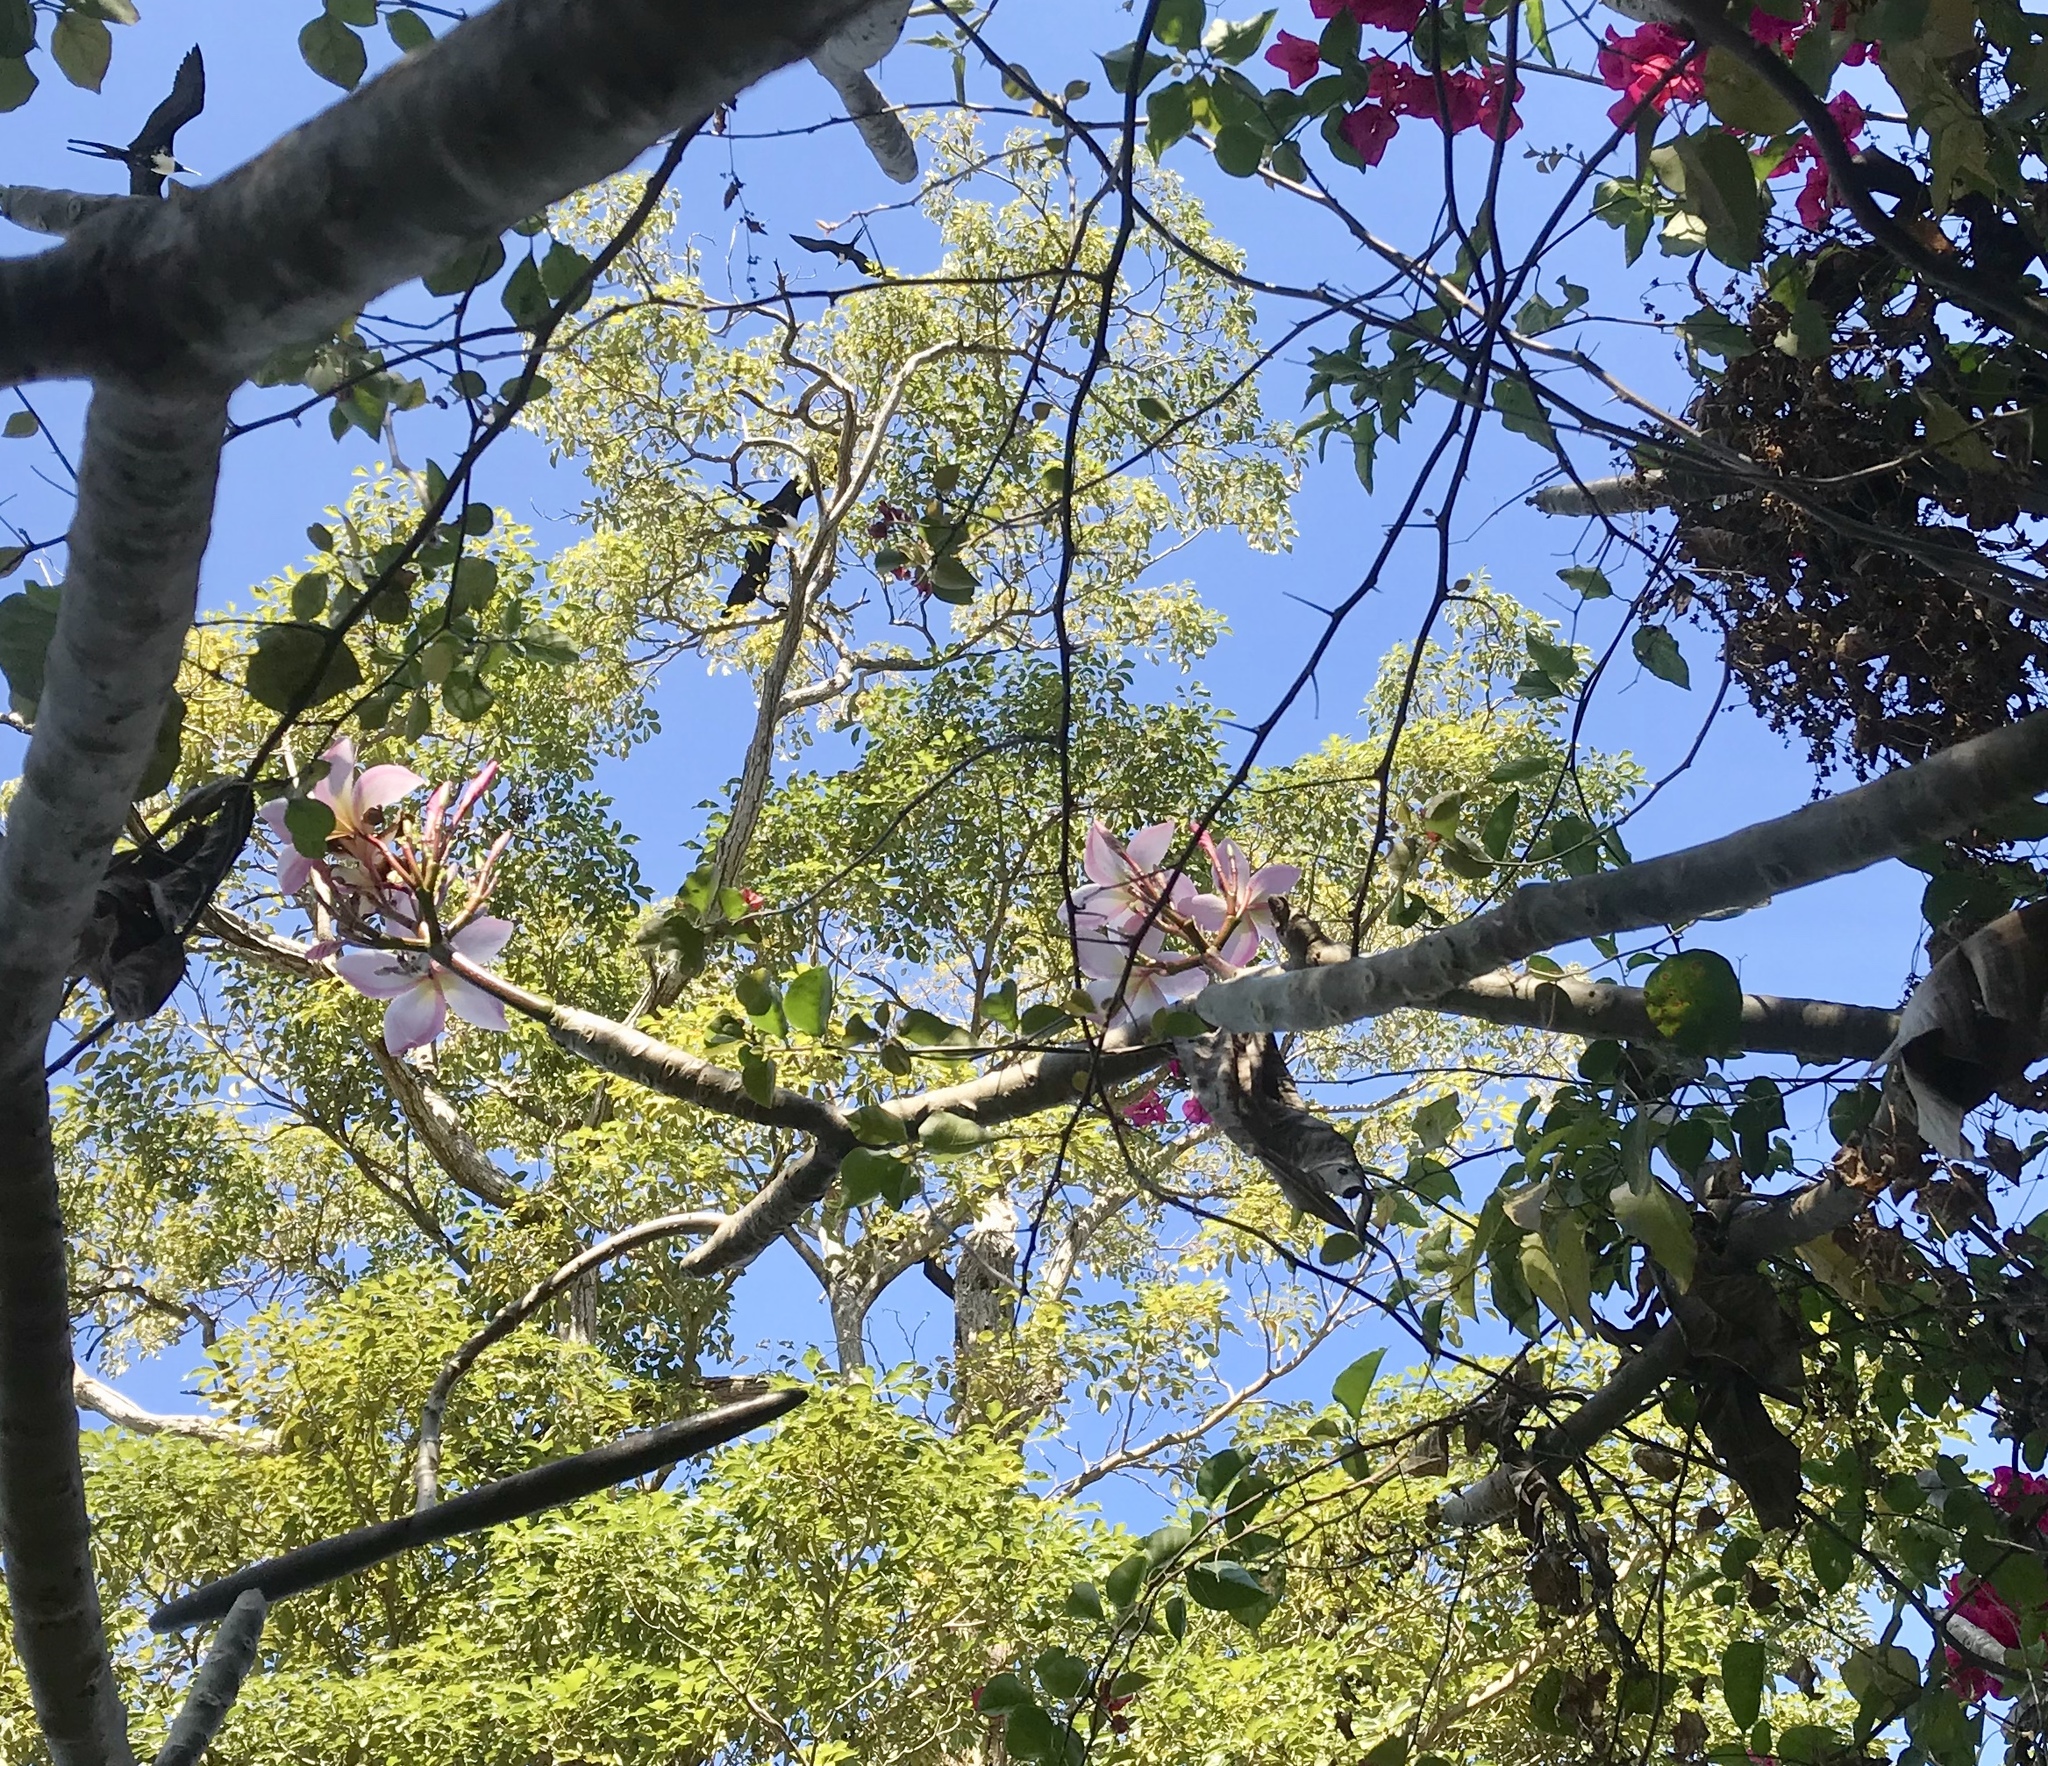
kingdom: Plantae
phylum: Tracheophyta
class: Magnoliopsida
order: Gentianales
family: Apocynaceae
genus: Plumeria
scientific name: Plumeria rubra
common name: Pagoda-tree
